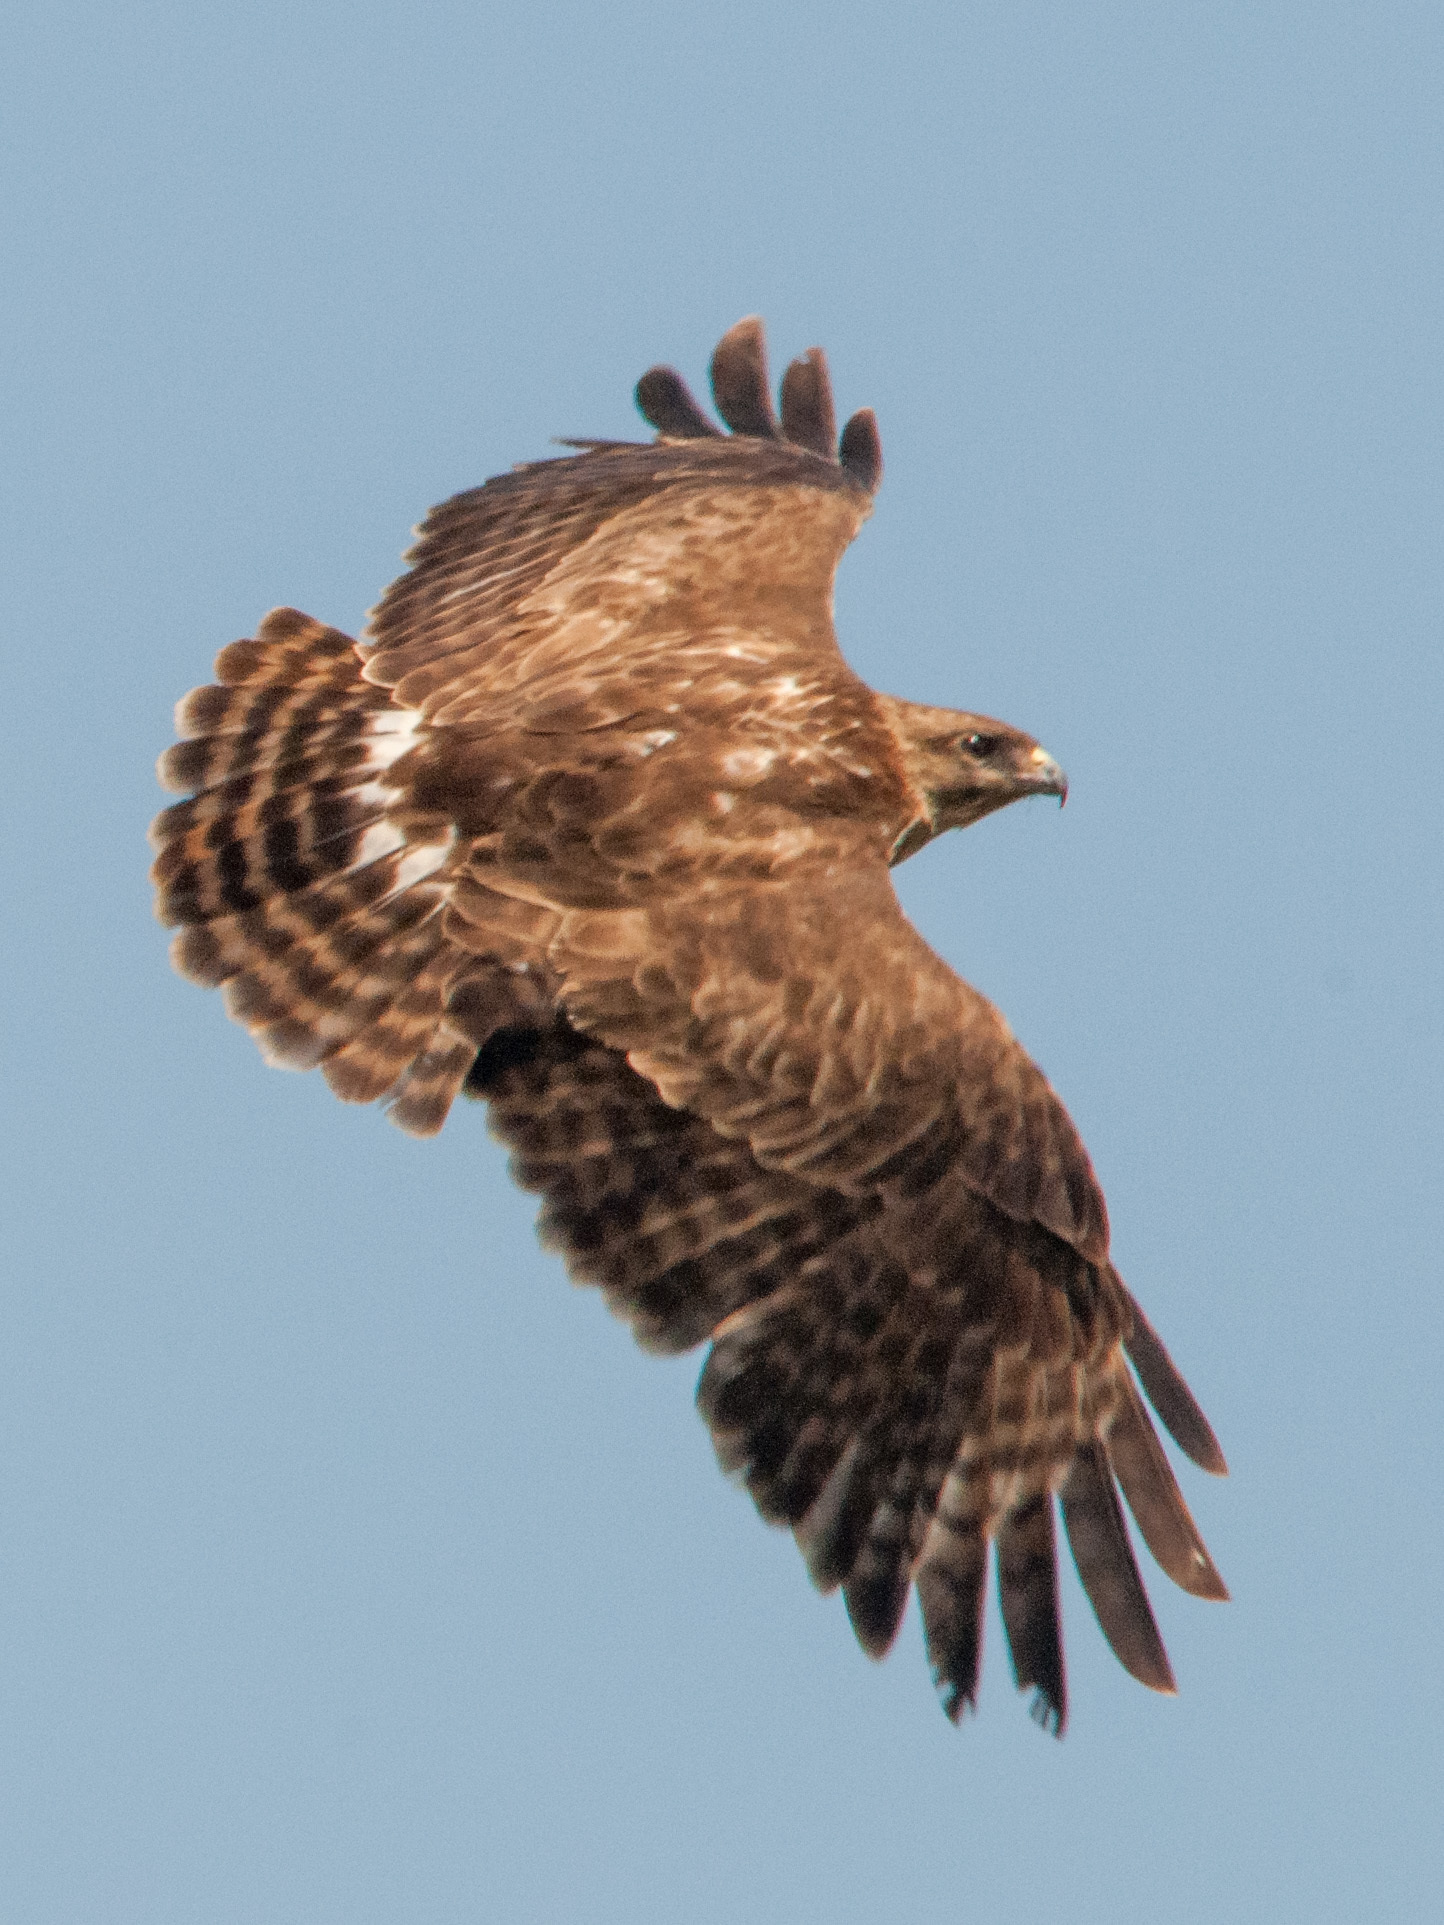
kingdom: Animalia
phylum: Chordata
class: Aves
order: Accipitriformes
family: Accipitridae
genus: Buteo
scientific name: Buteo brachypterus
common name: Madagascar buzzard
